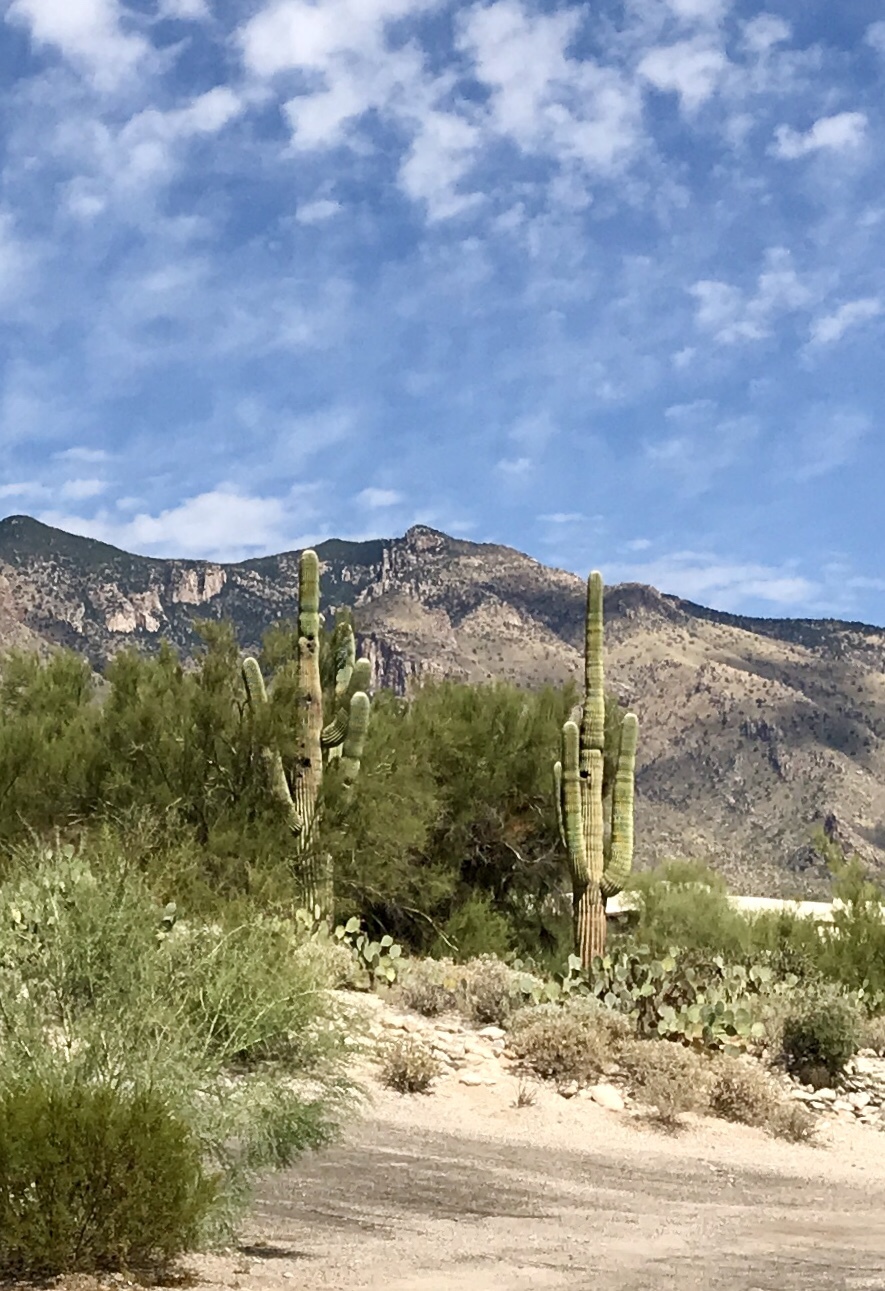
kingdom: Plantae
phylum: Tracheophyta
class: Magnoliopsida
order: Caryophyllales
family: Cactaceae
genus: Carnegiea
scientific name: Carnegiea gigantea
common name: Saguaro
